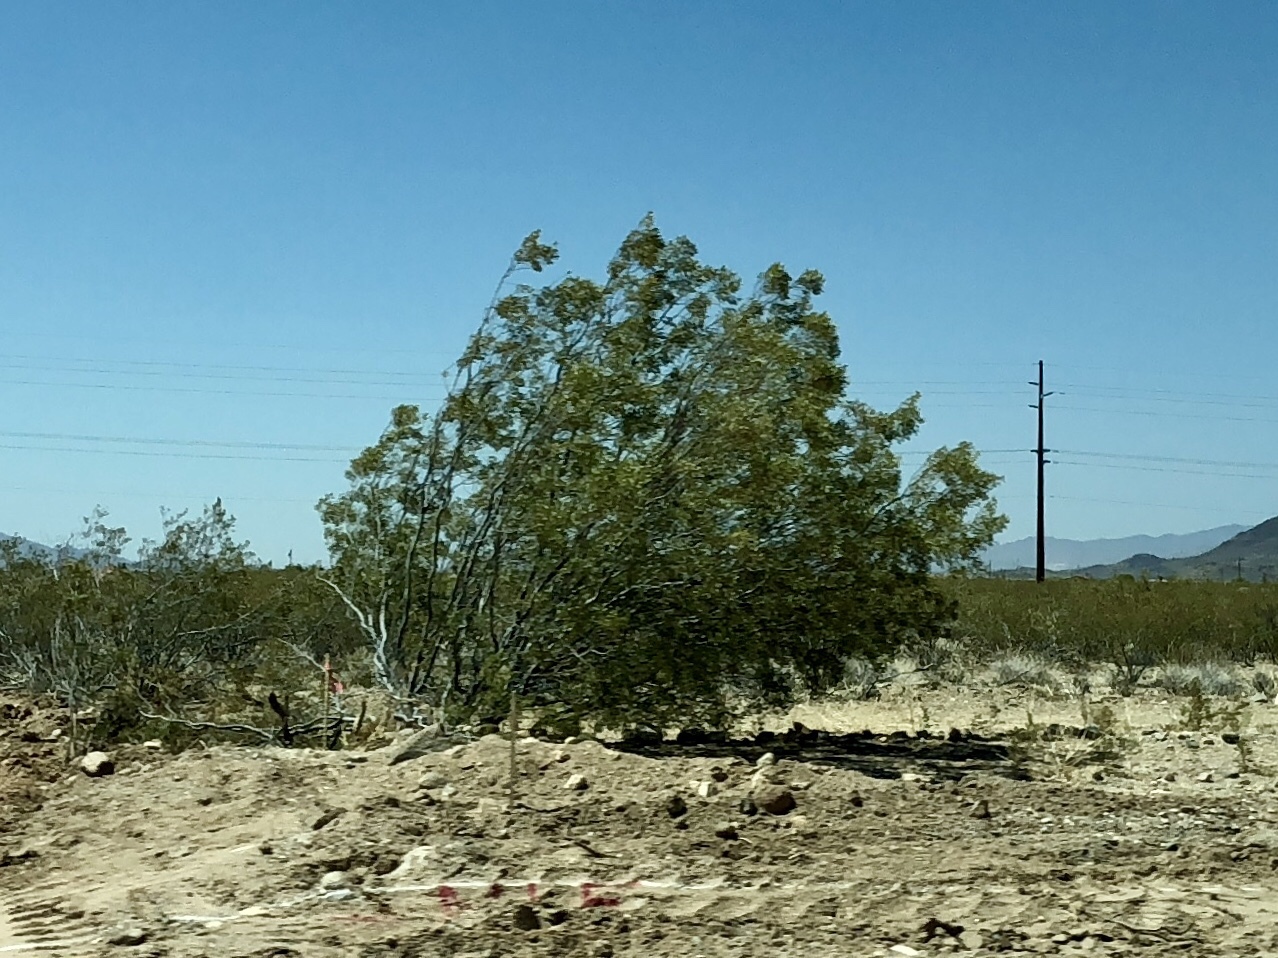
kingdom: Plantae
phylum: Tracheophyta
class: Magnoliopsida
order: Zygophyllales
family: Zygophyllaceae
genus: Larrea
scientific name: Larrea tridentata
